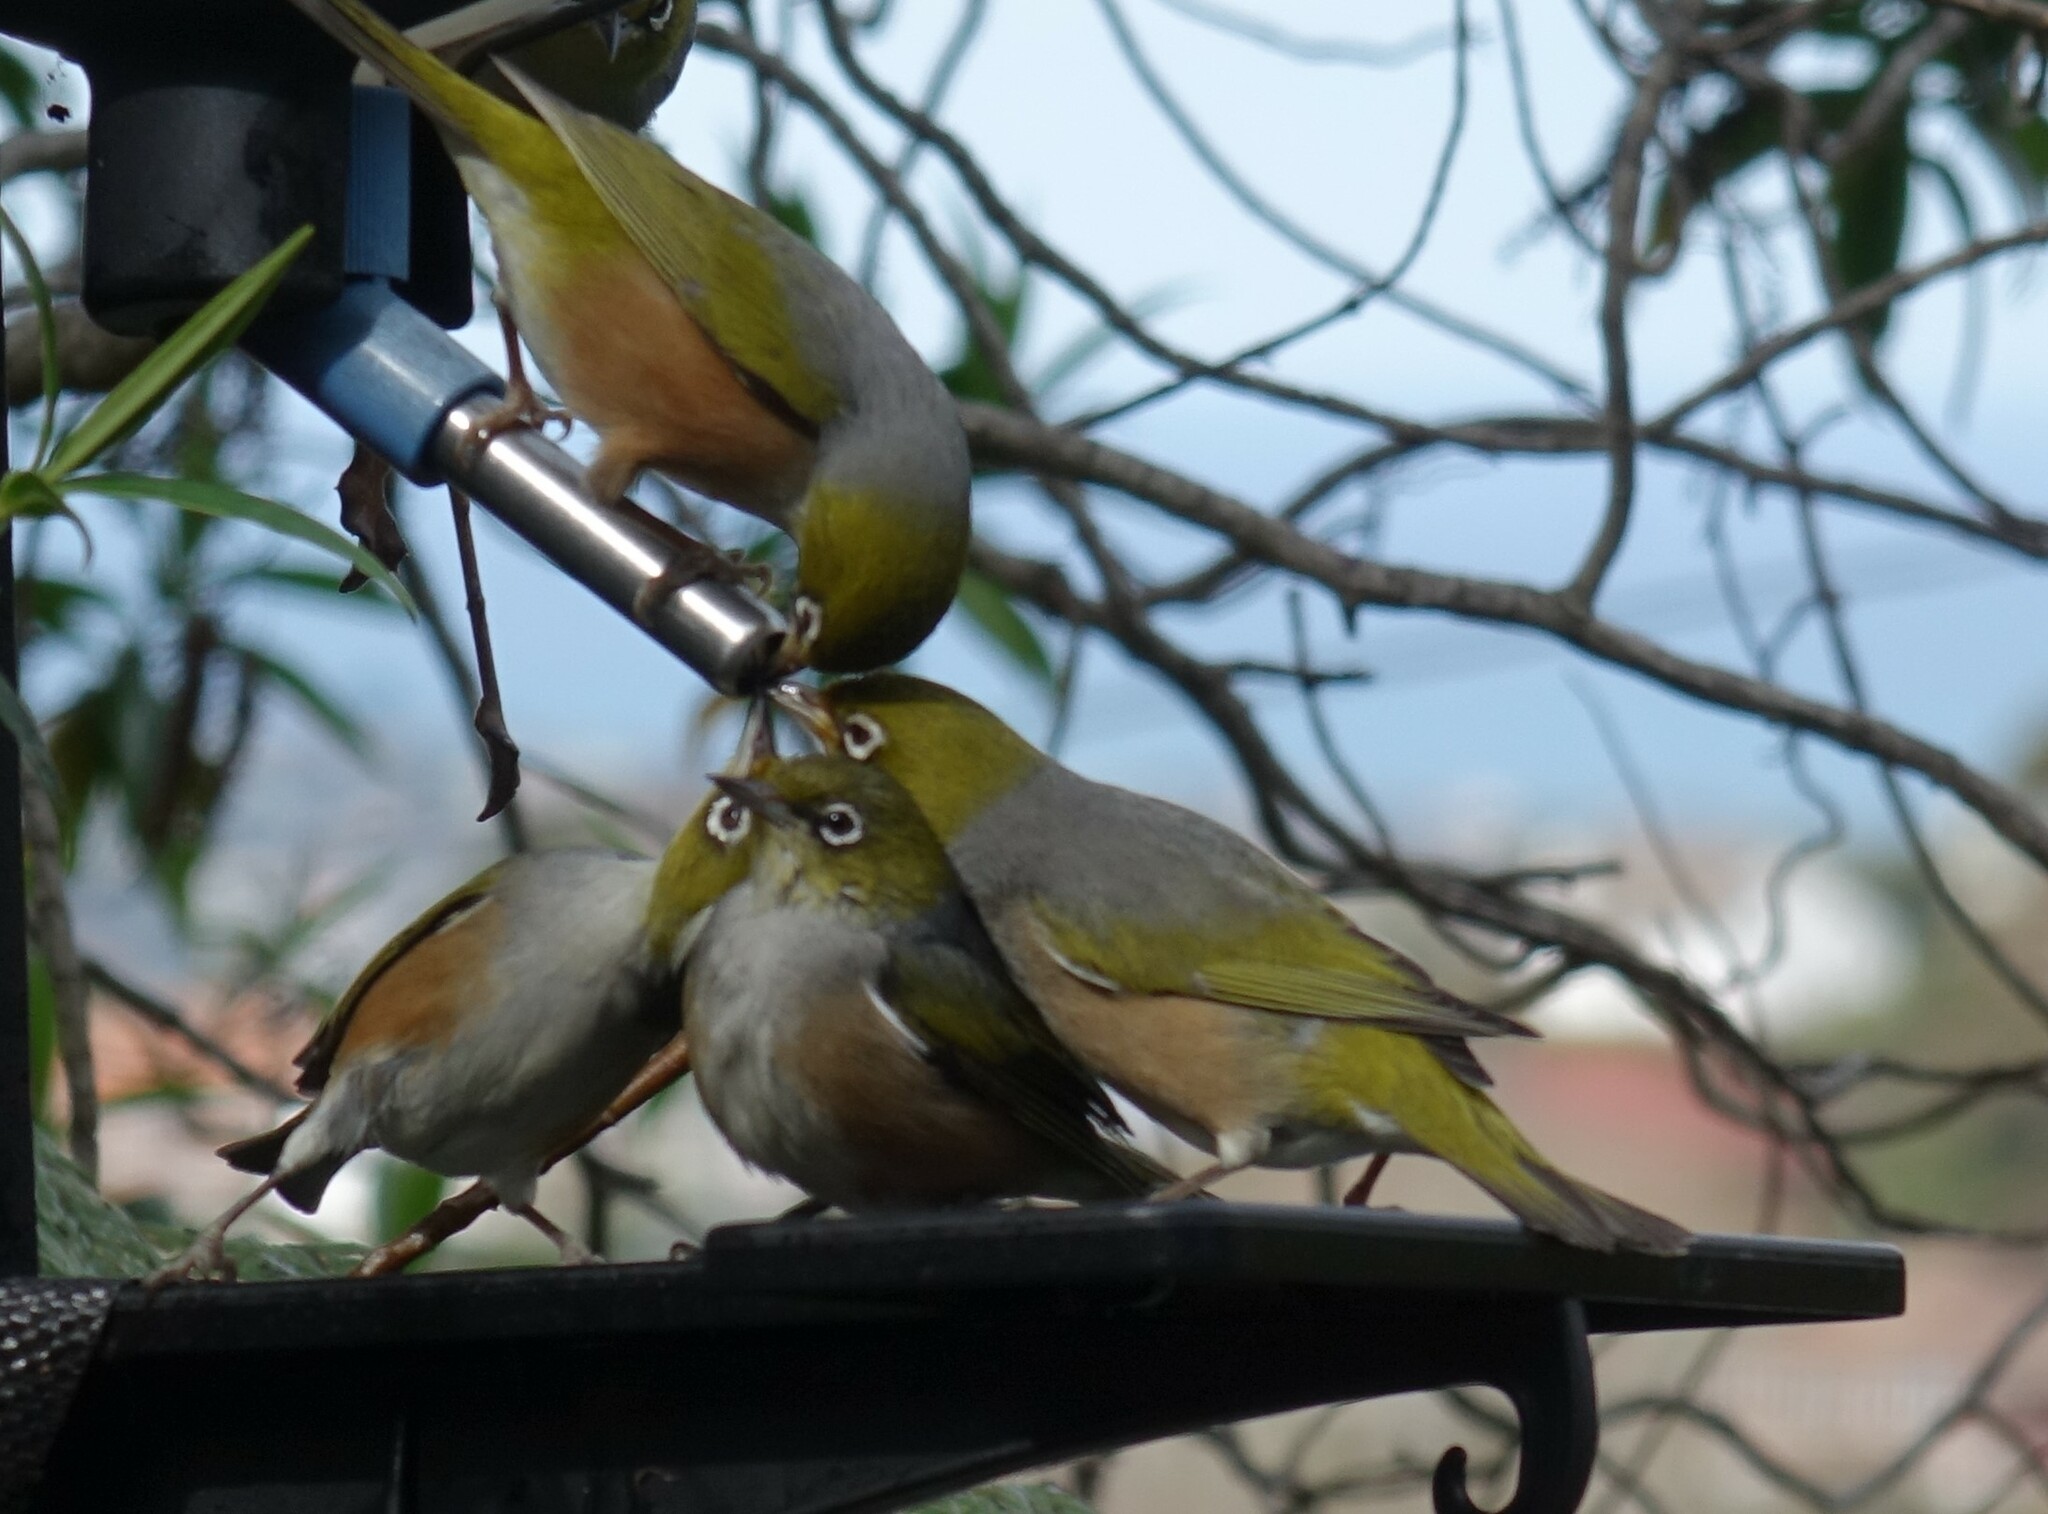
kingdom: Animalia
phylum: Chordata
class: Aves
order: Passeriformes
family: Zosteropidae
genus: Zosterops
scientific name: Zosterops lateralis
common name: Silvereye
